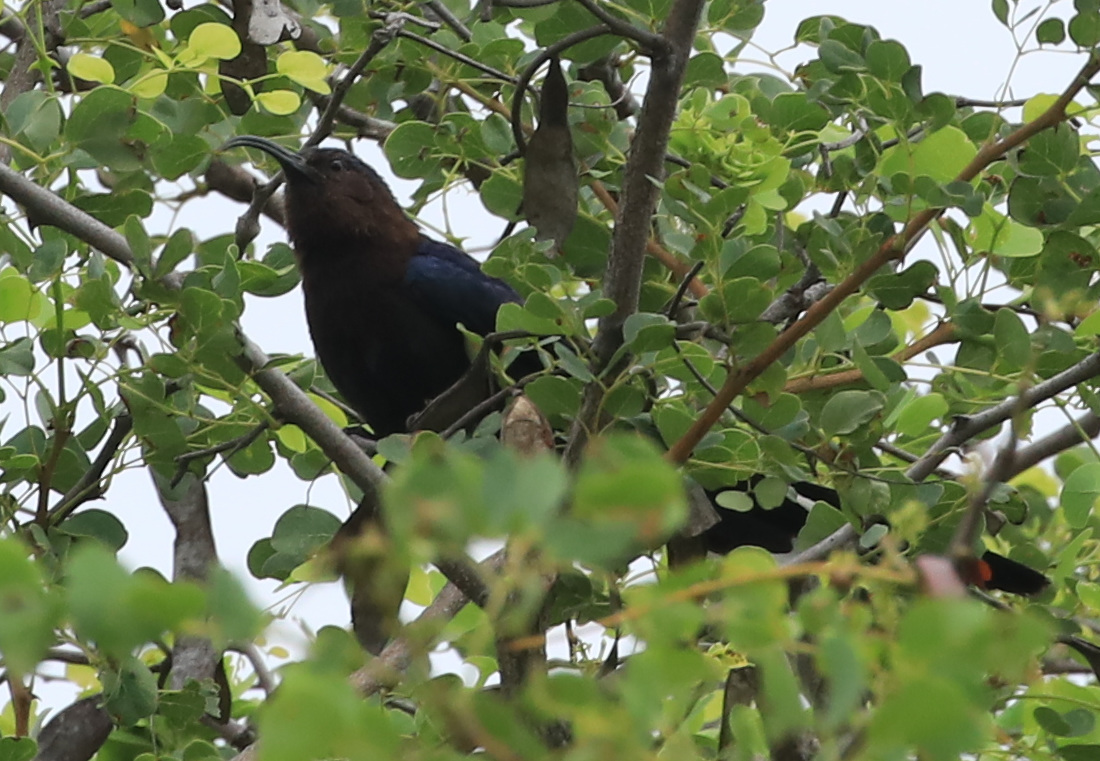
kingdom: Animalia
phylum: Chordata
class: Aves
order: Bucerotiformes
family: Phoeniculidae
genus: Rhinopomastus
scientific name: Rhinopomastus cyanomelas
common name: Common scimitarbill
